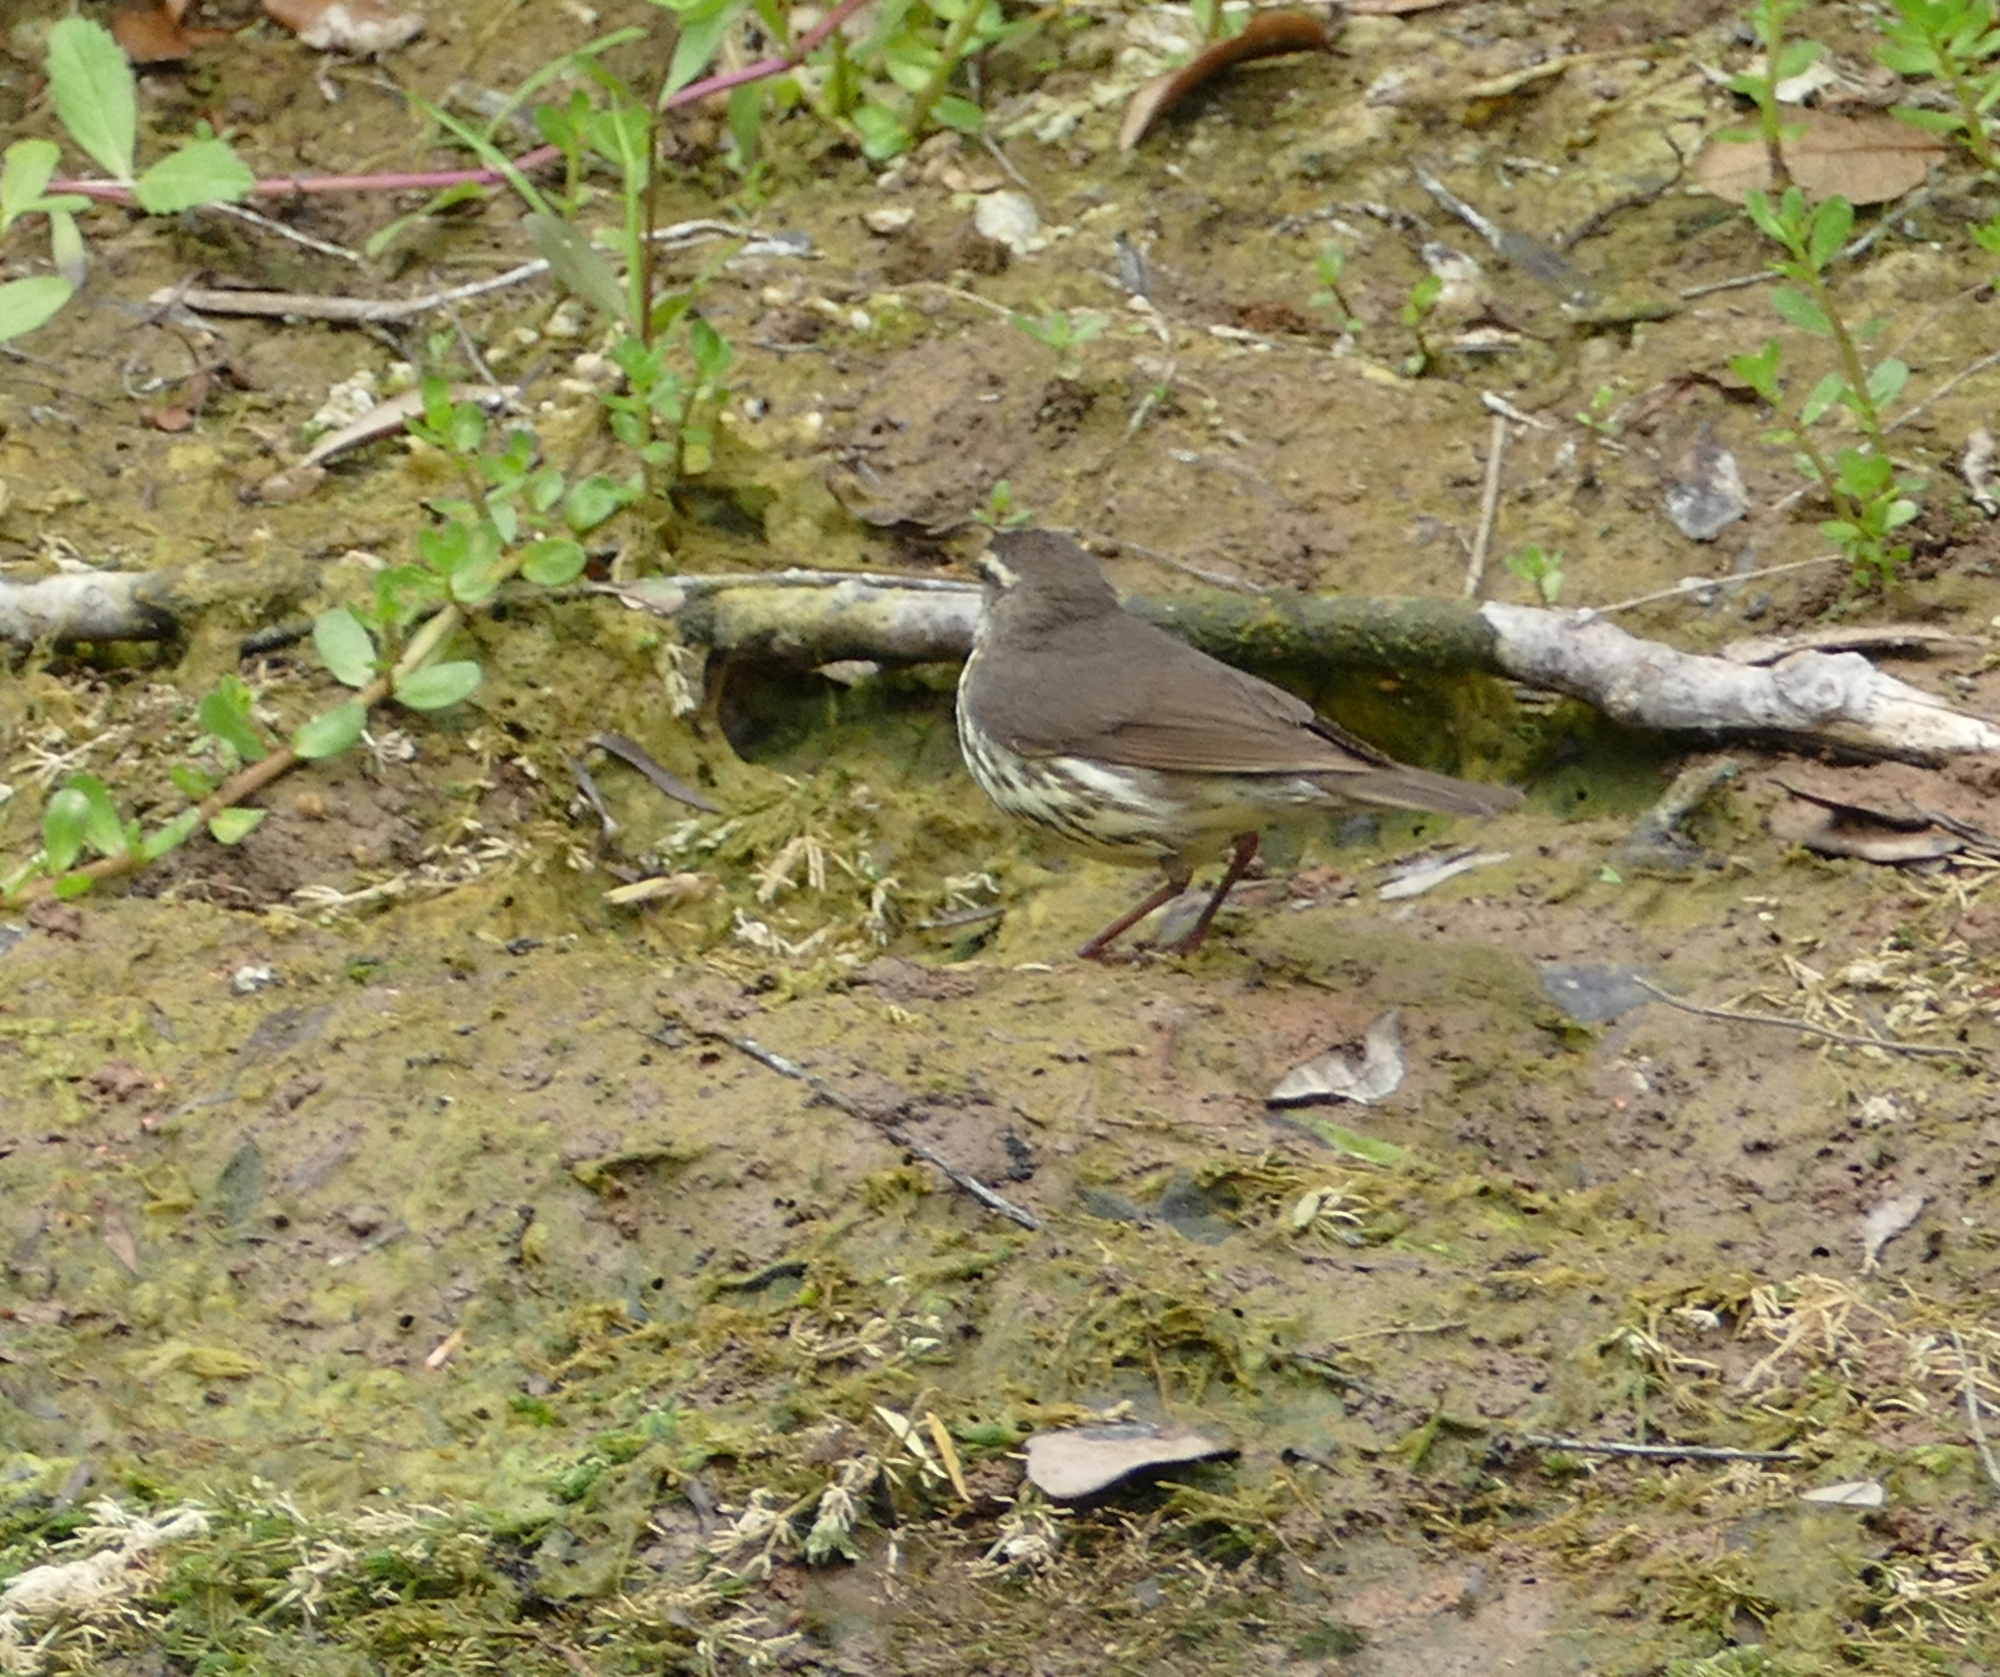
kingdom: Animalia
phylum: Chordata
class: Aves
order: Passeriformes
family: Parulidae
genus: Parkesia
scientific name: Parkesia noveboracensis
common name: Northern waterthrush
